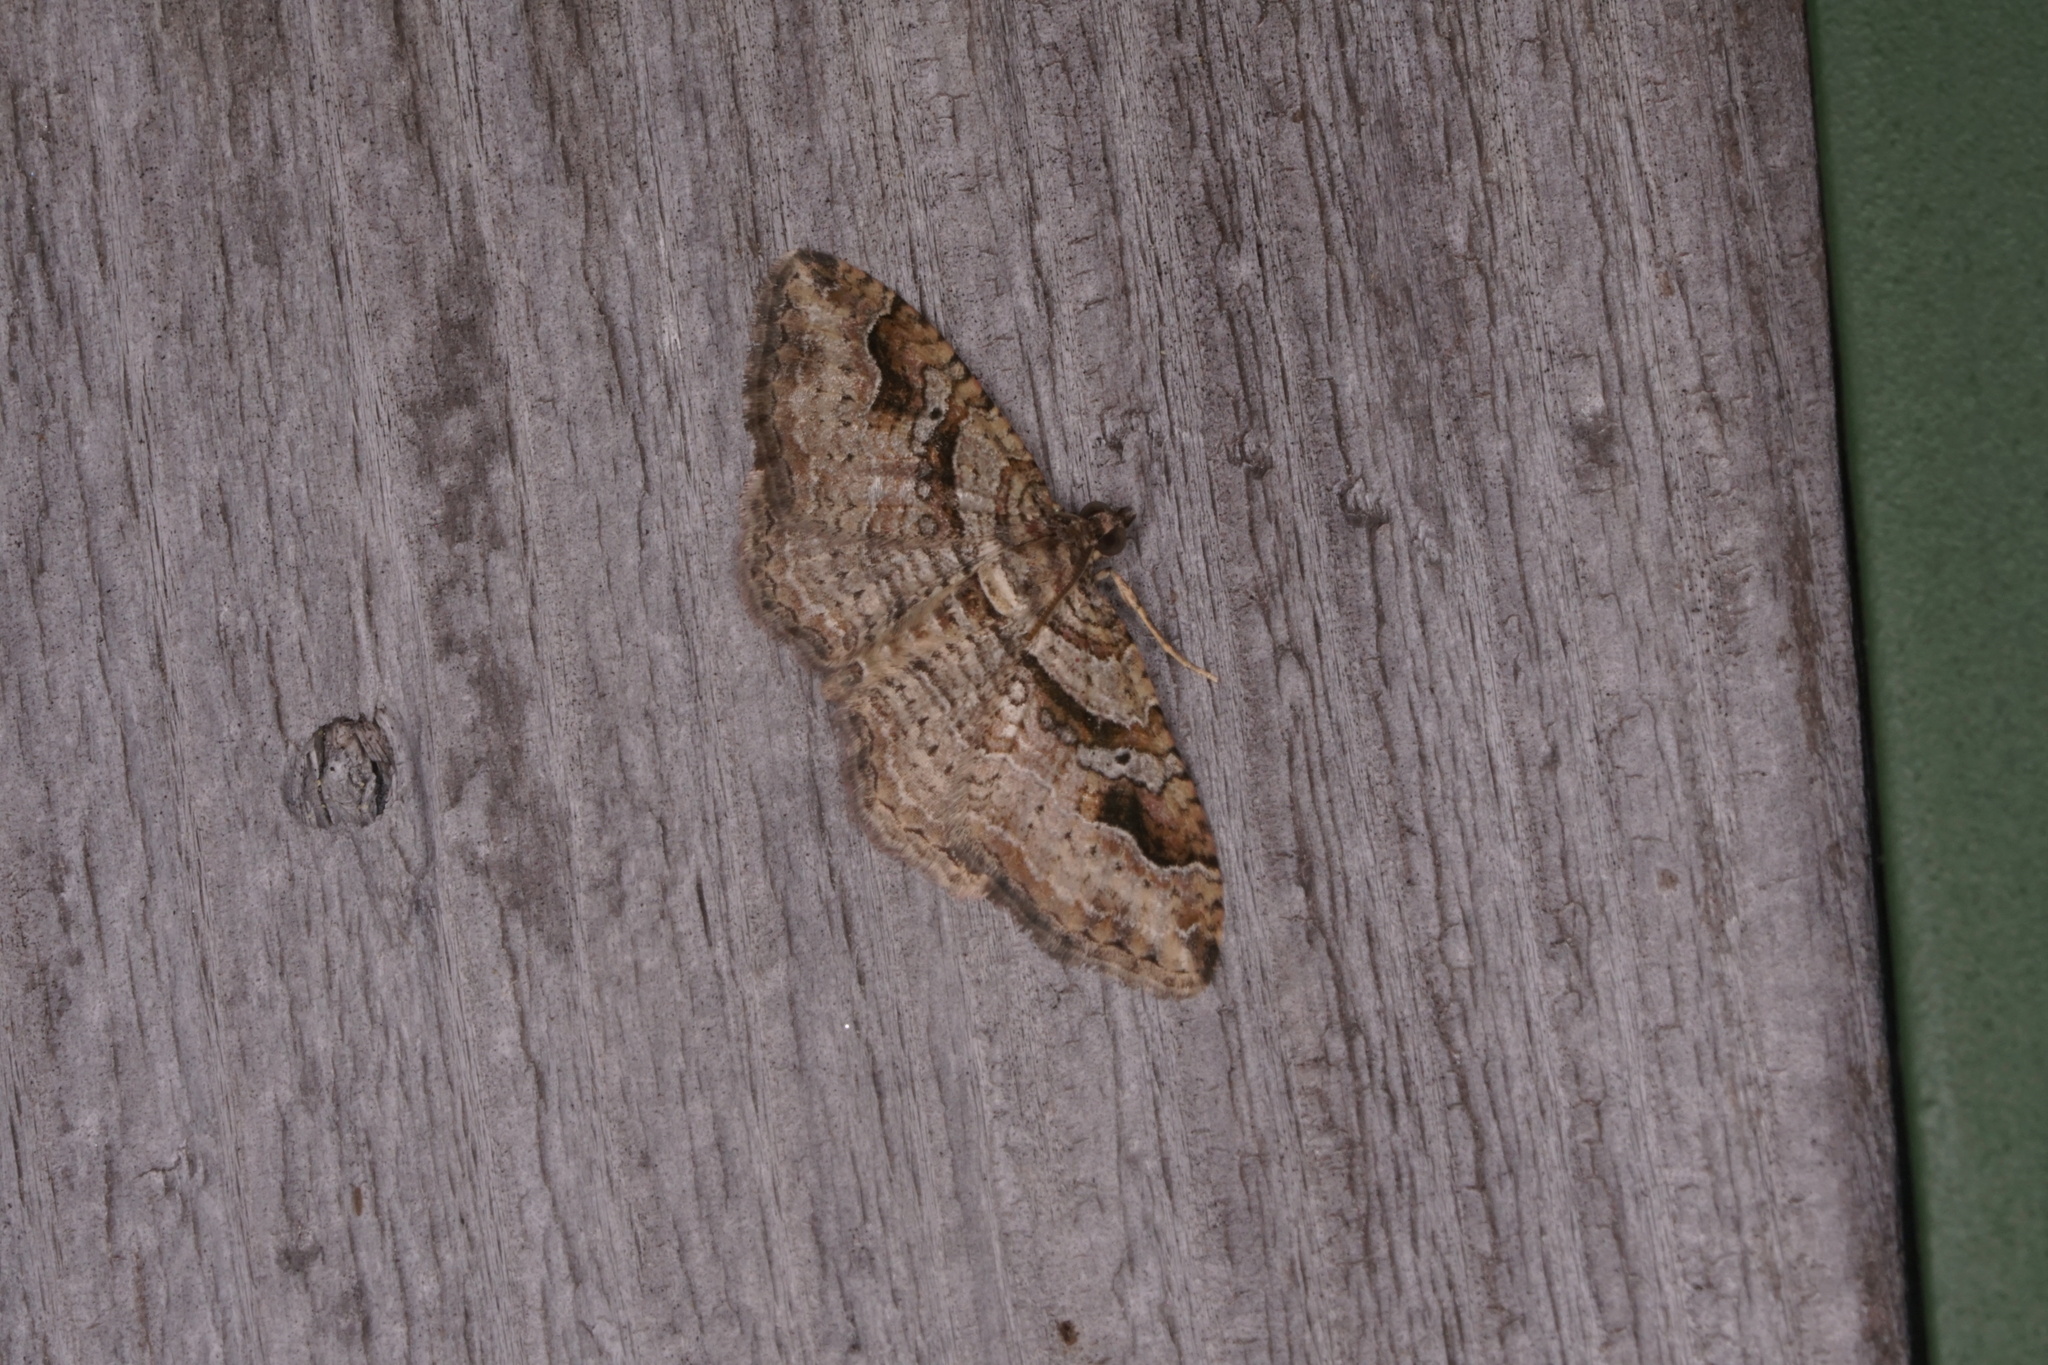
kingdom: Animalia
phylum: Arthropoda
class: Insecta
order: Lepidoptera
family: Geometridae
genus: Costaconvexa
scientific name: Costaconvexa centrostrigaria
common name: Bent-line carpet
